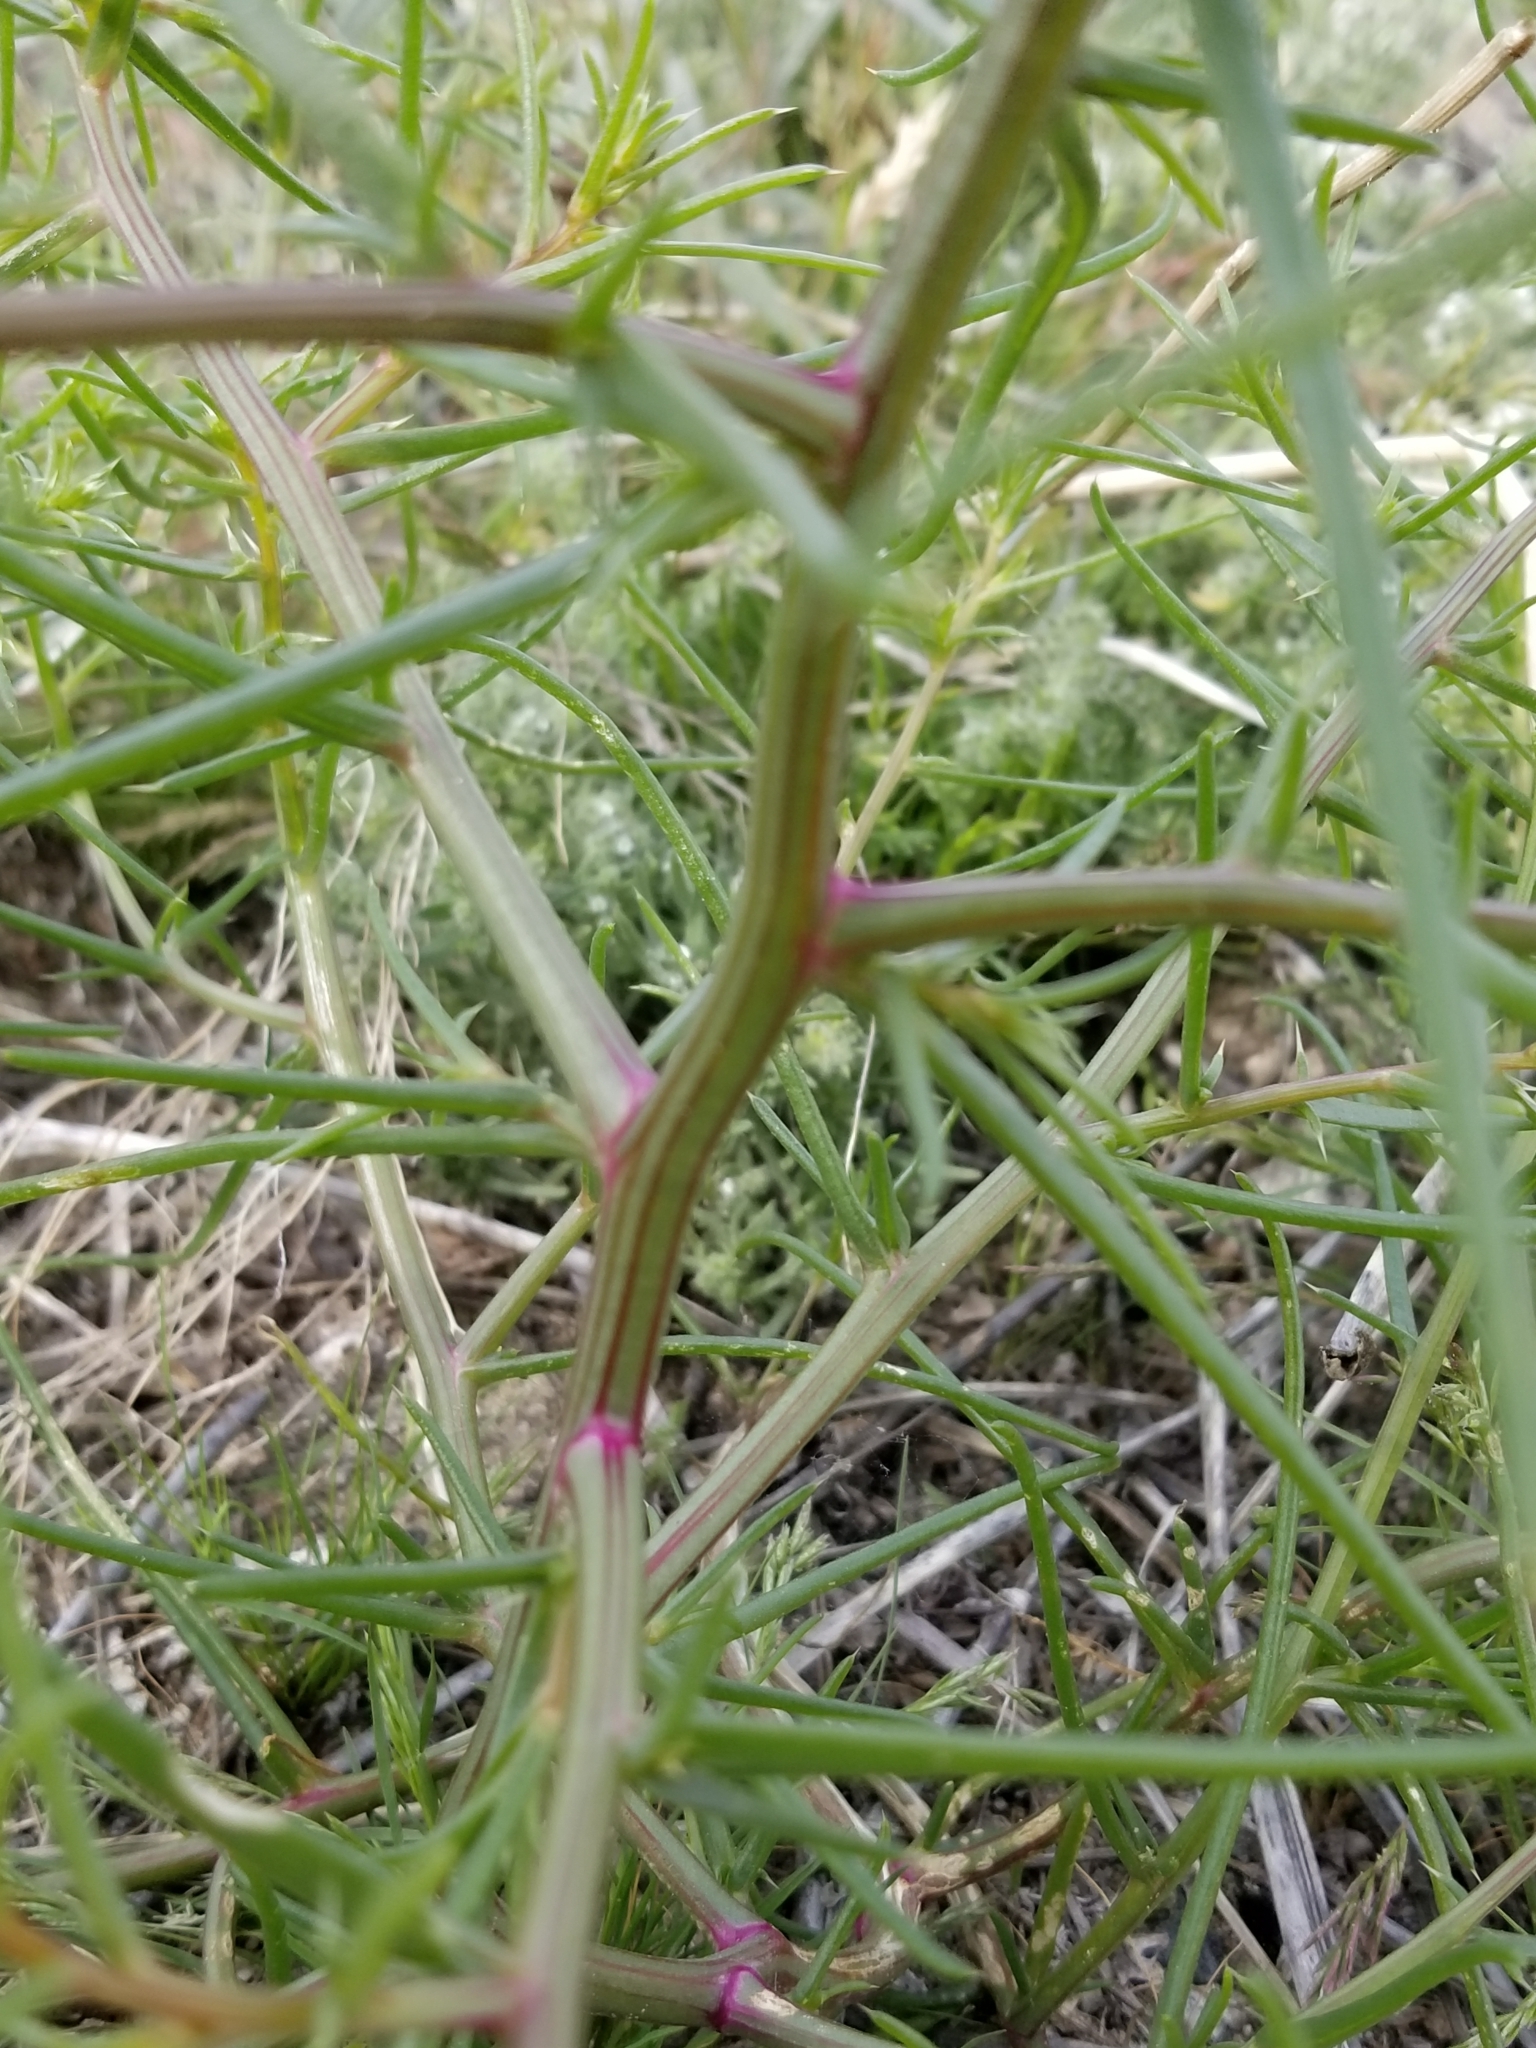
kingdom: Plantae
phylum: Tracheophyta
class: Magnoliopsida
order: Caryophyllales
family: Amaranthaceae
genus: Salsola
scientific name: Salsola tragus
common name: Prickly russian thistle
